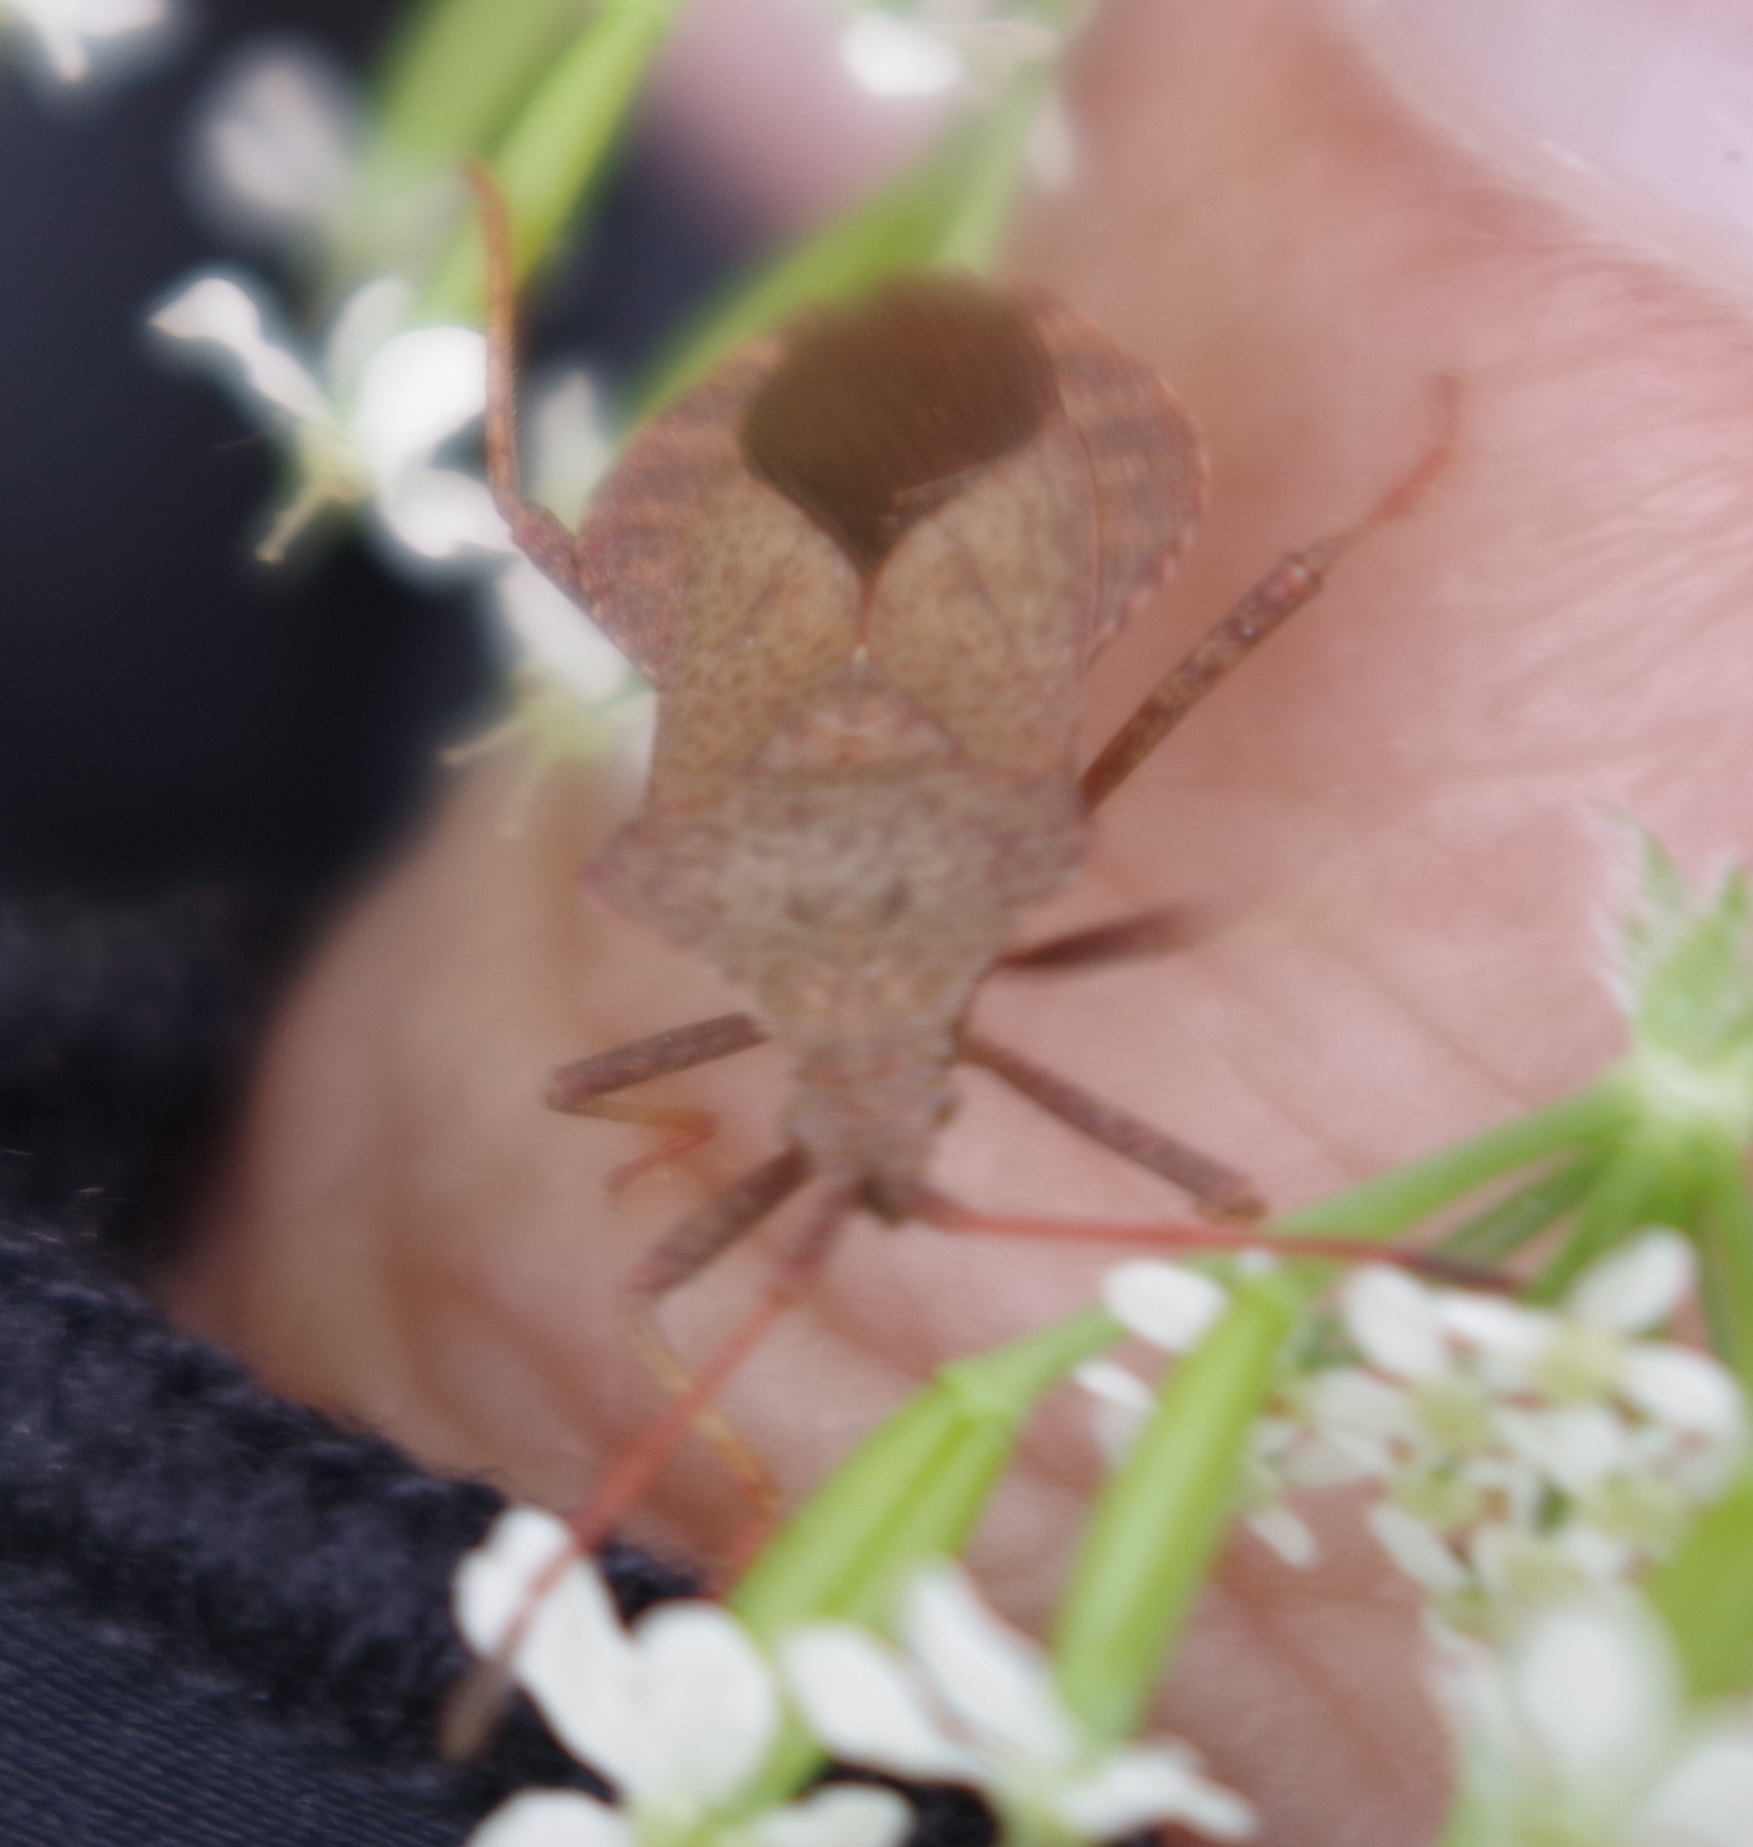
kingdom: Animalia
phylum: Arthropoda
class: Insecta
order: Hemiptera
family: Coreidae
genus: Coreus
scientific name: Coreus marginatus
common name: Dock bug
